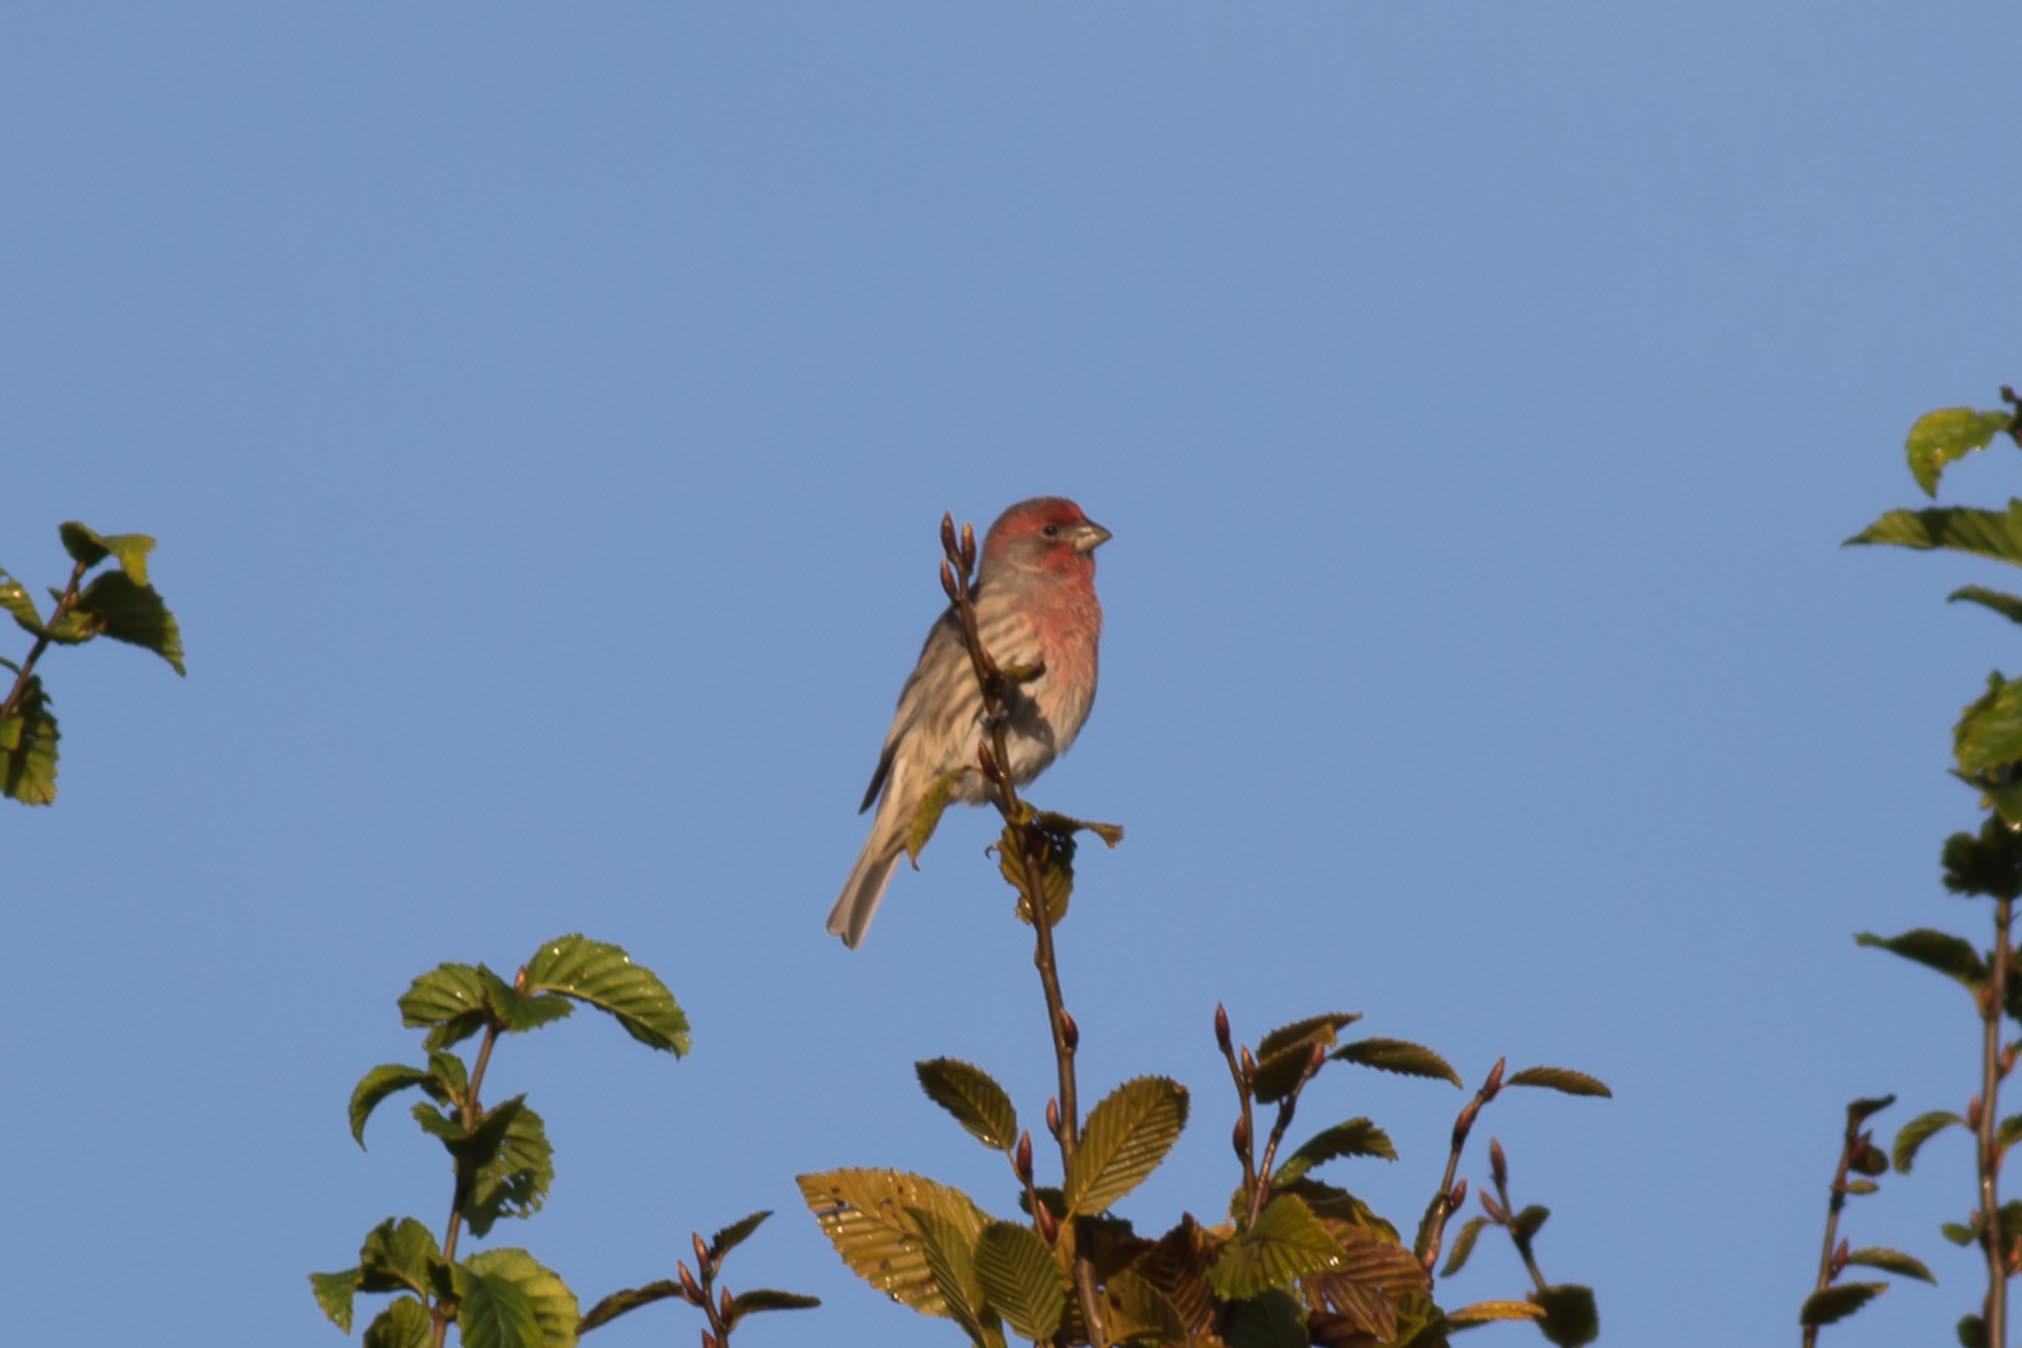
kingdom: Animalia
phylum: Chordata
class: Aves
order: Passeriformes
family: Fringillidae
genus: Haemorhous
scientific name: Haemorhous mexicanus
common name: House finch
